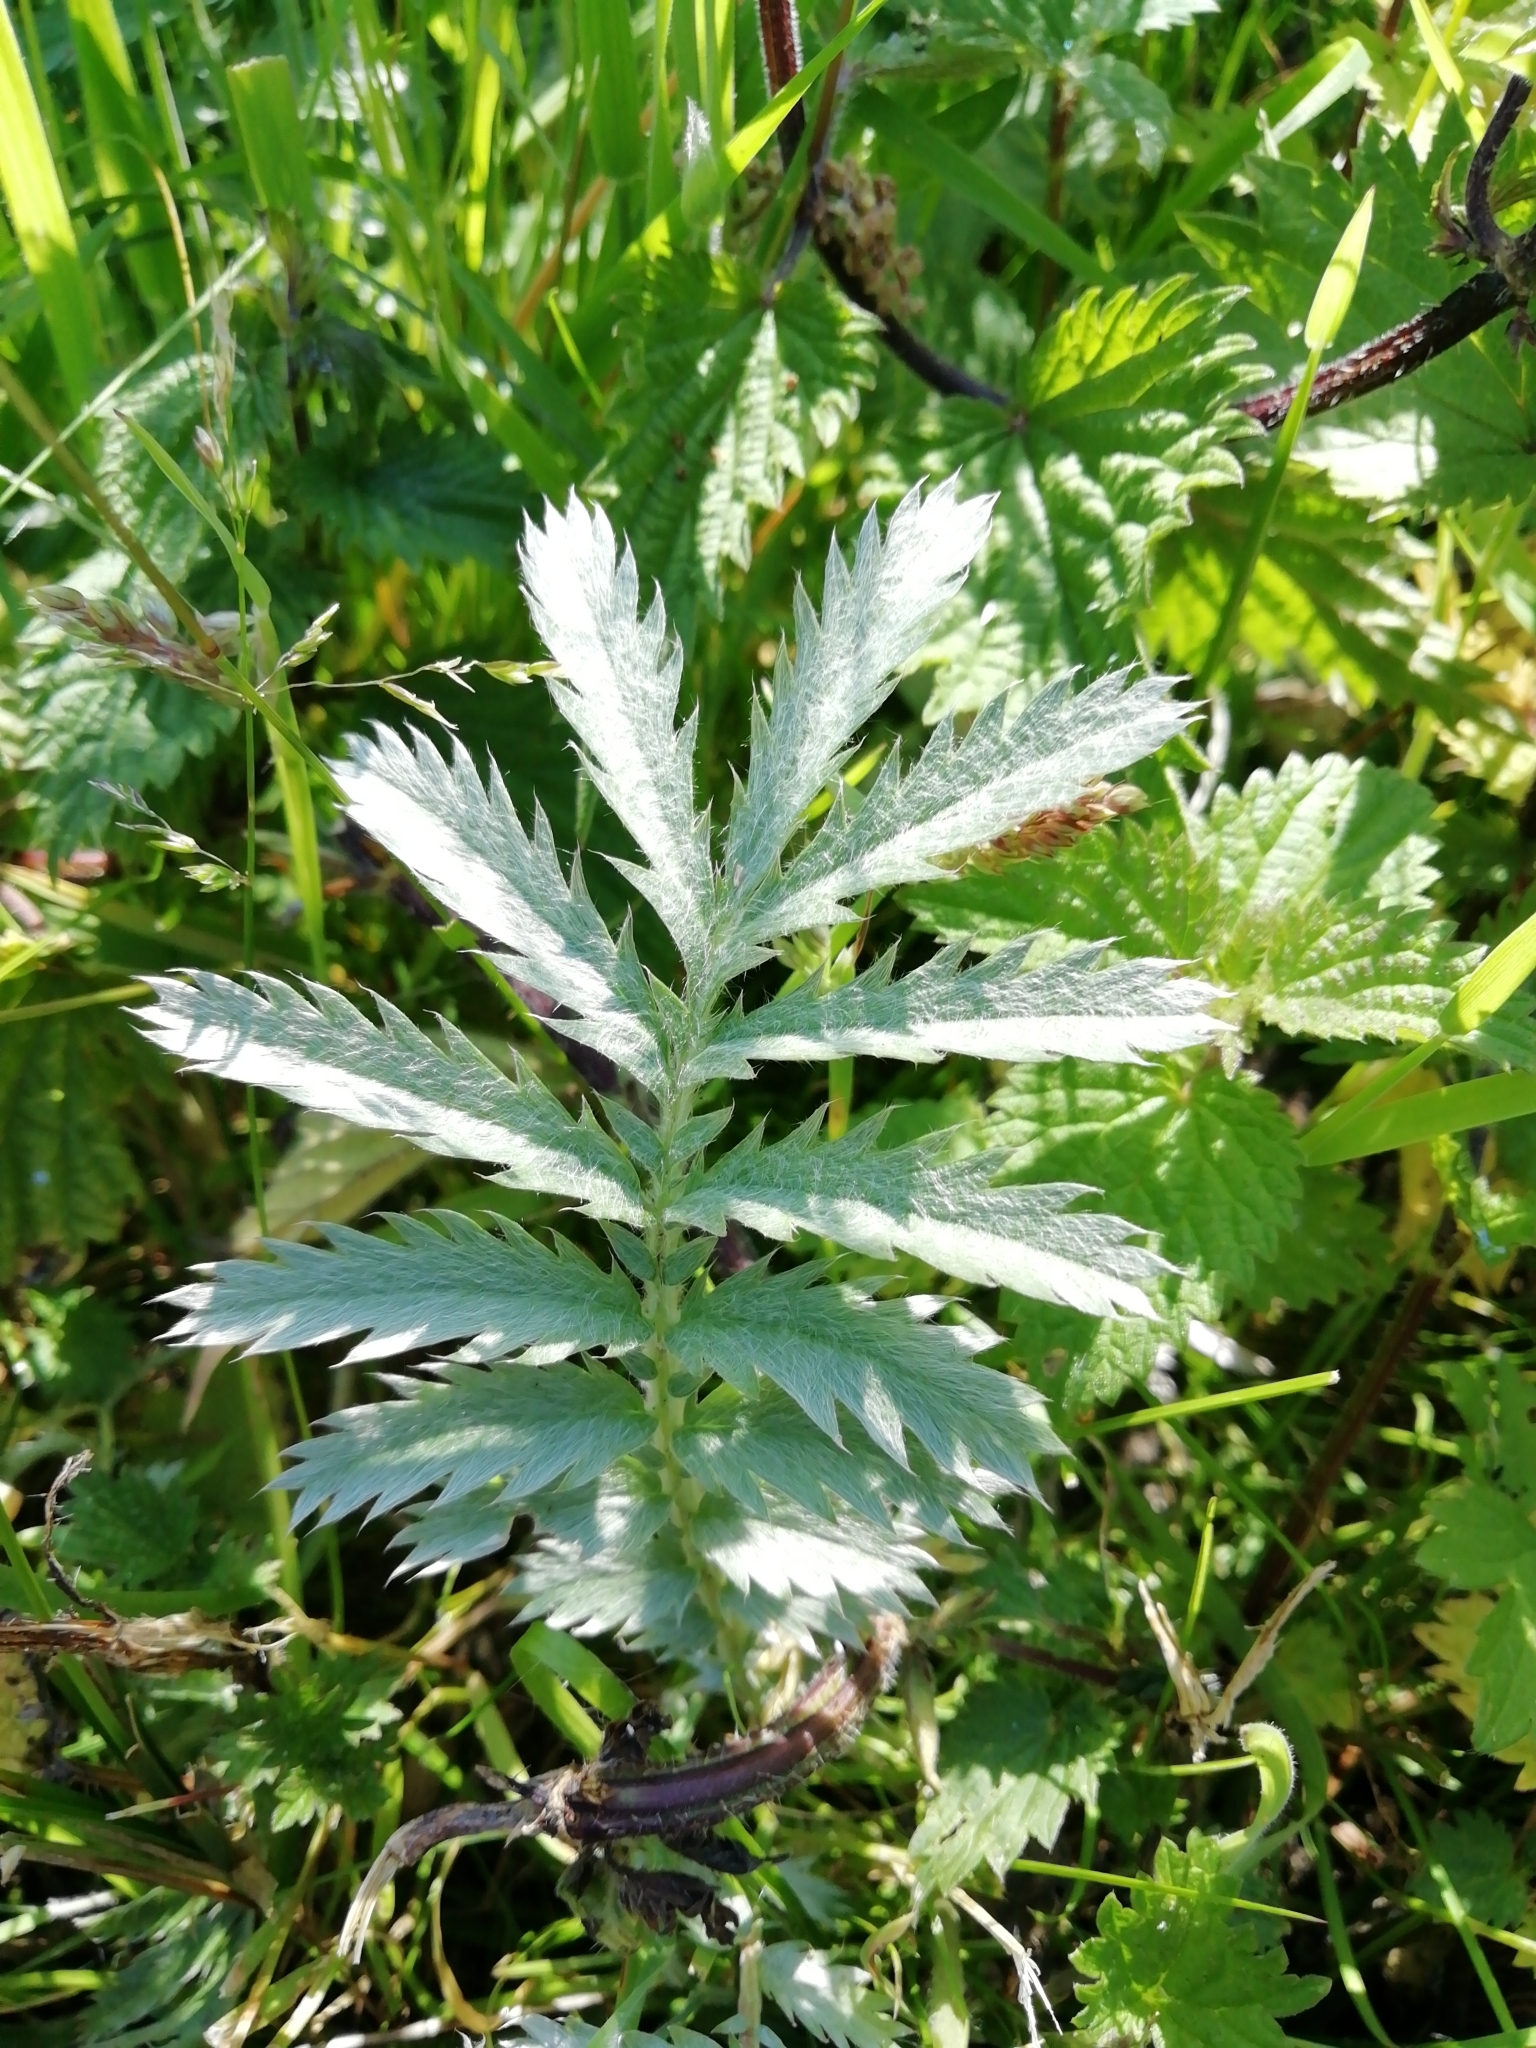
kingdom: Plantae
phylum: Tracheophyta
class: Magnoliopsida
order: Rosales
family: Rosaceae
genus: Argentina
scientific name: Argentina anserina
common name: Common silverweed
